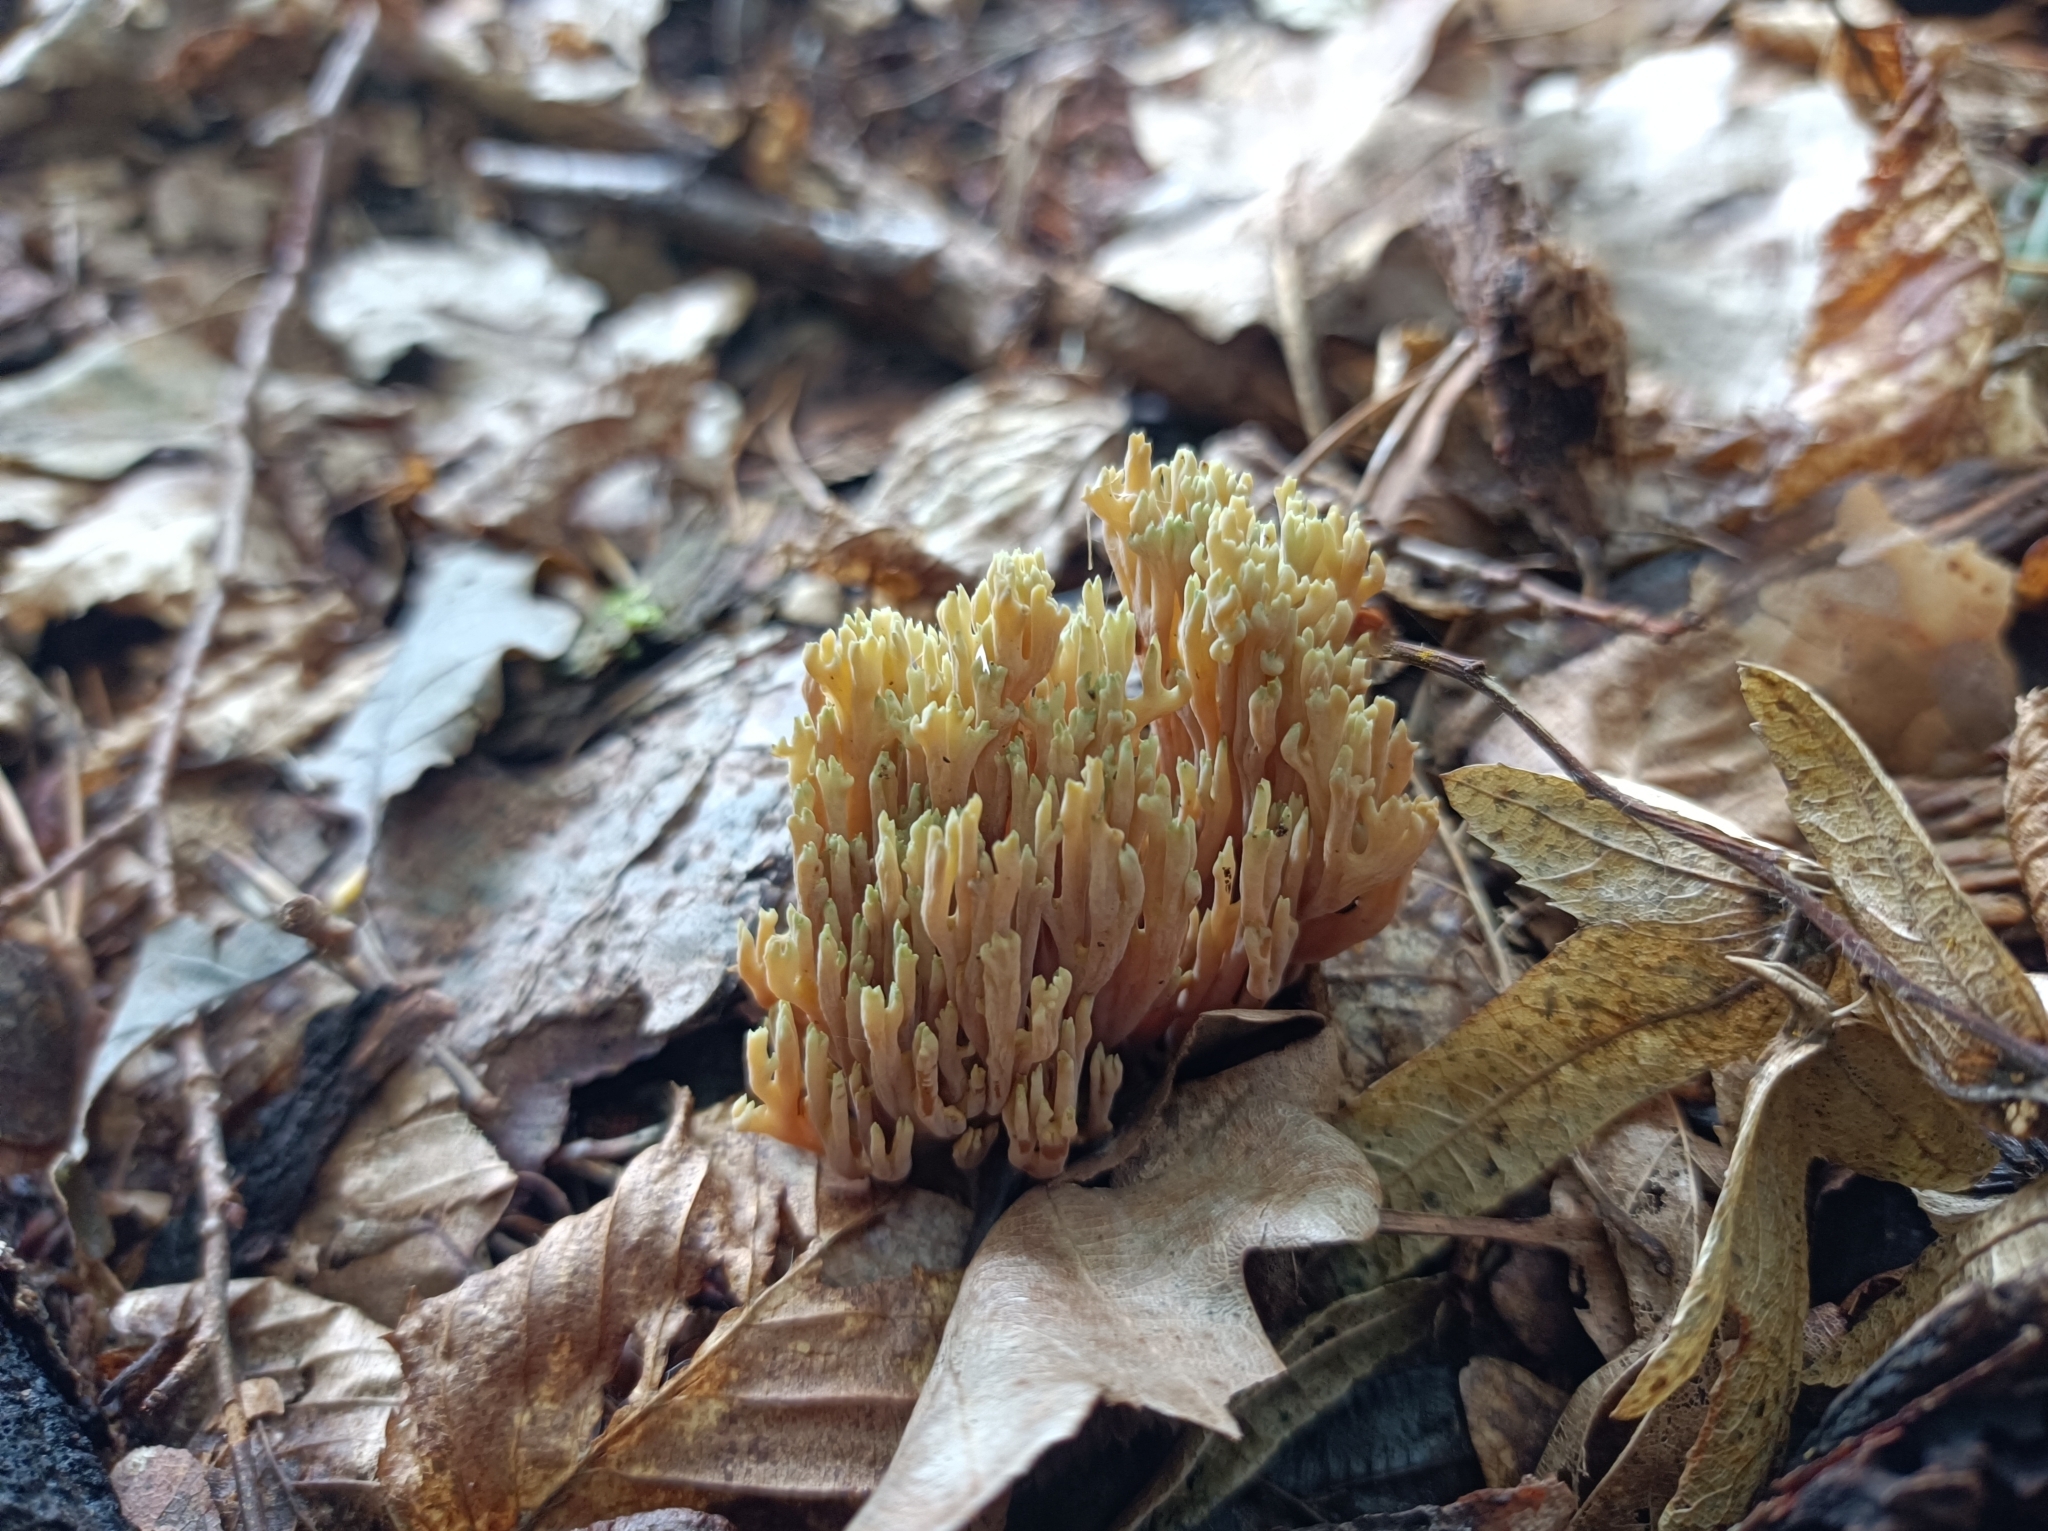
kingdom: Fungi
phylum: Basidiomycota
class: Agaricomycetes
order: Gomphales
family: Gomphaceae
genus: Ramaria
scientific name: Ramaria apiculata
